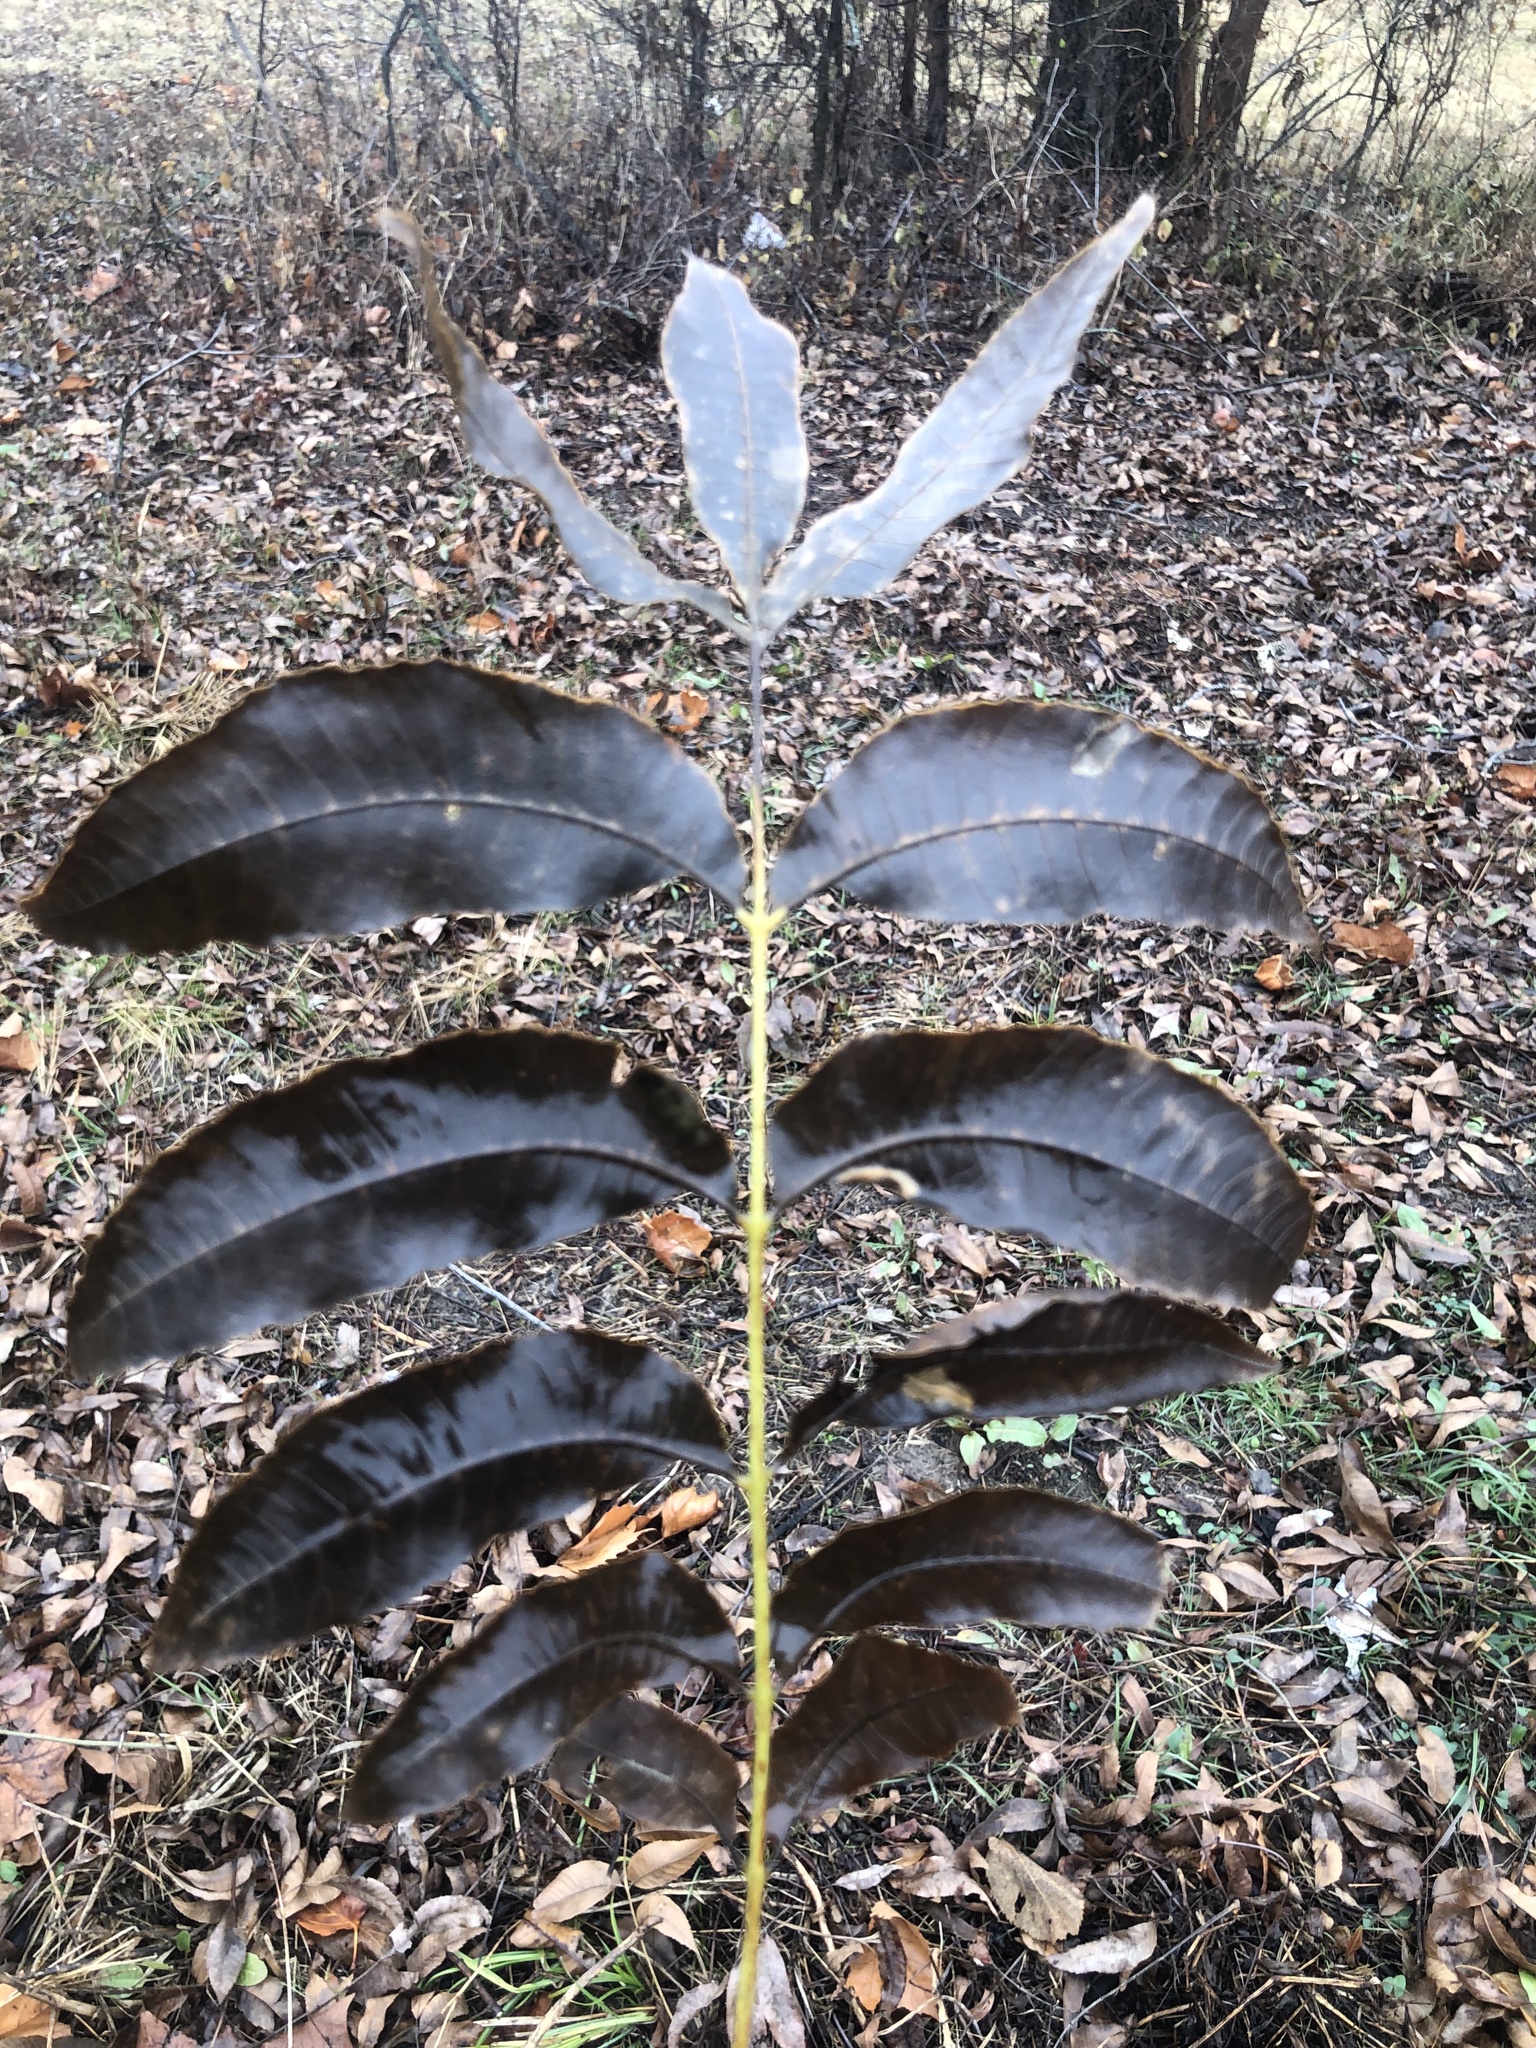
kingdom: Plantae
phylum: Tracheophyta
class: Magnoliopsida
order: Fagales
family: Juglandaceae
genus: Carya
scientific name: Carya illinoinensis
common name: Pecan
